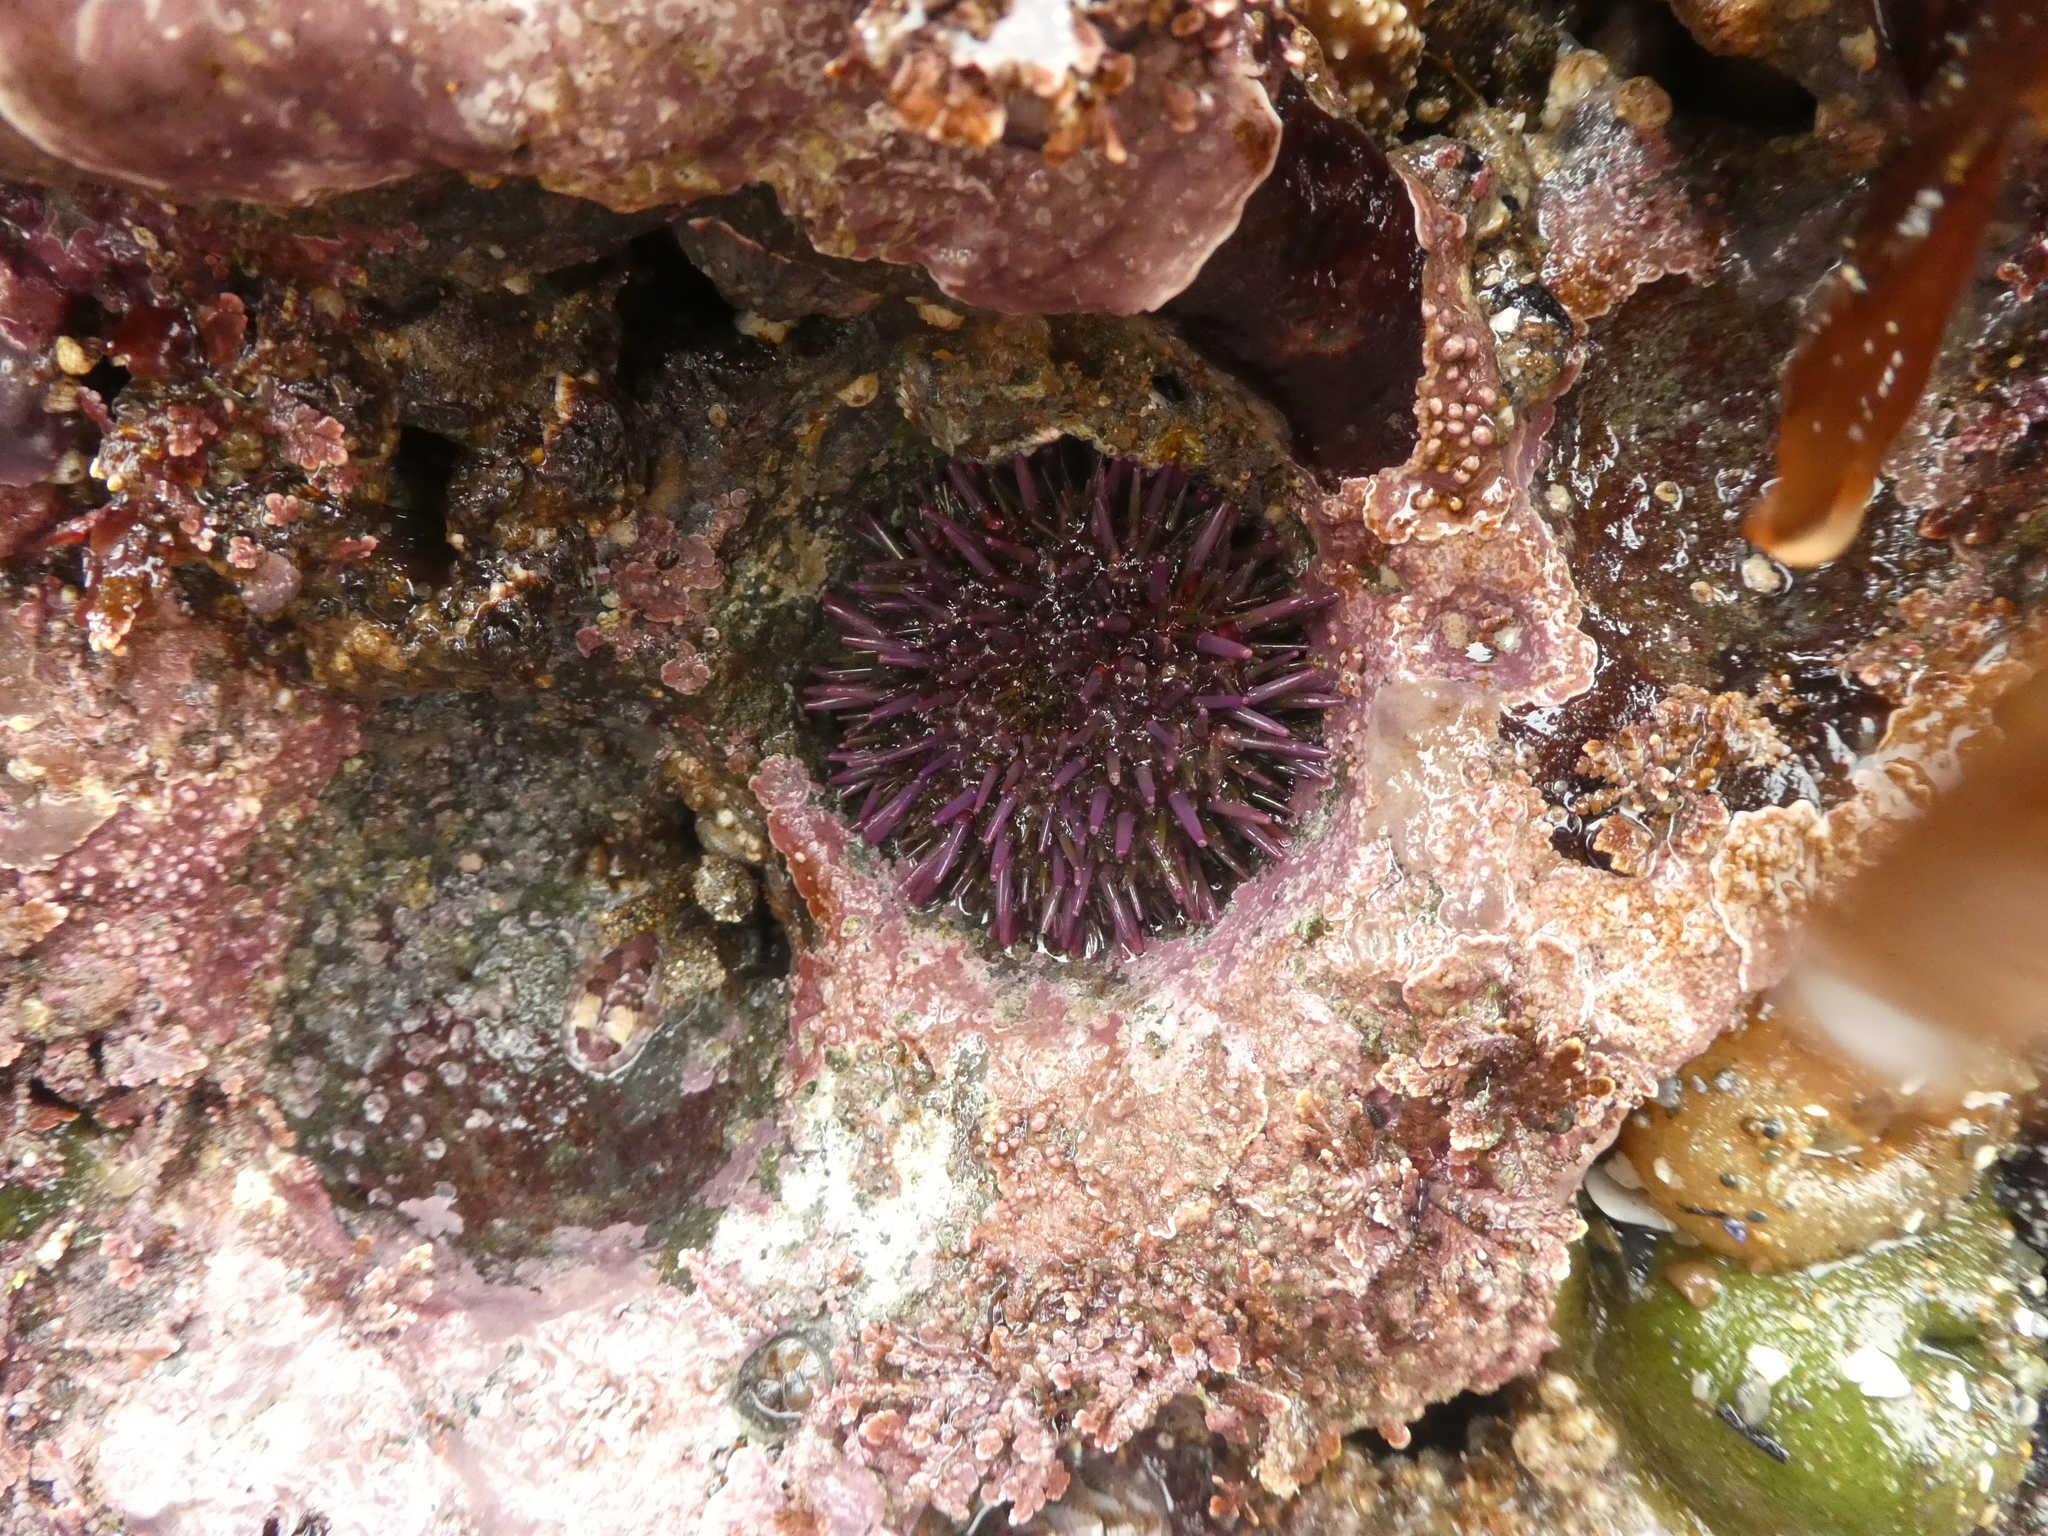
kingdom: Animalia
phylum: Echinodermata
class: Echinoidea
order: Camarodonta
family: Strongylocentrotidae
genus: Strongylocentrotus
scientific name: Strongylocentrotus purpuratus
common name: Purple sea urchin
